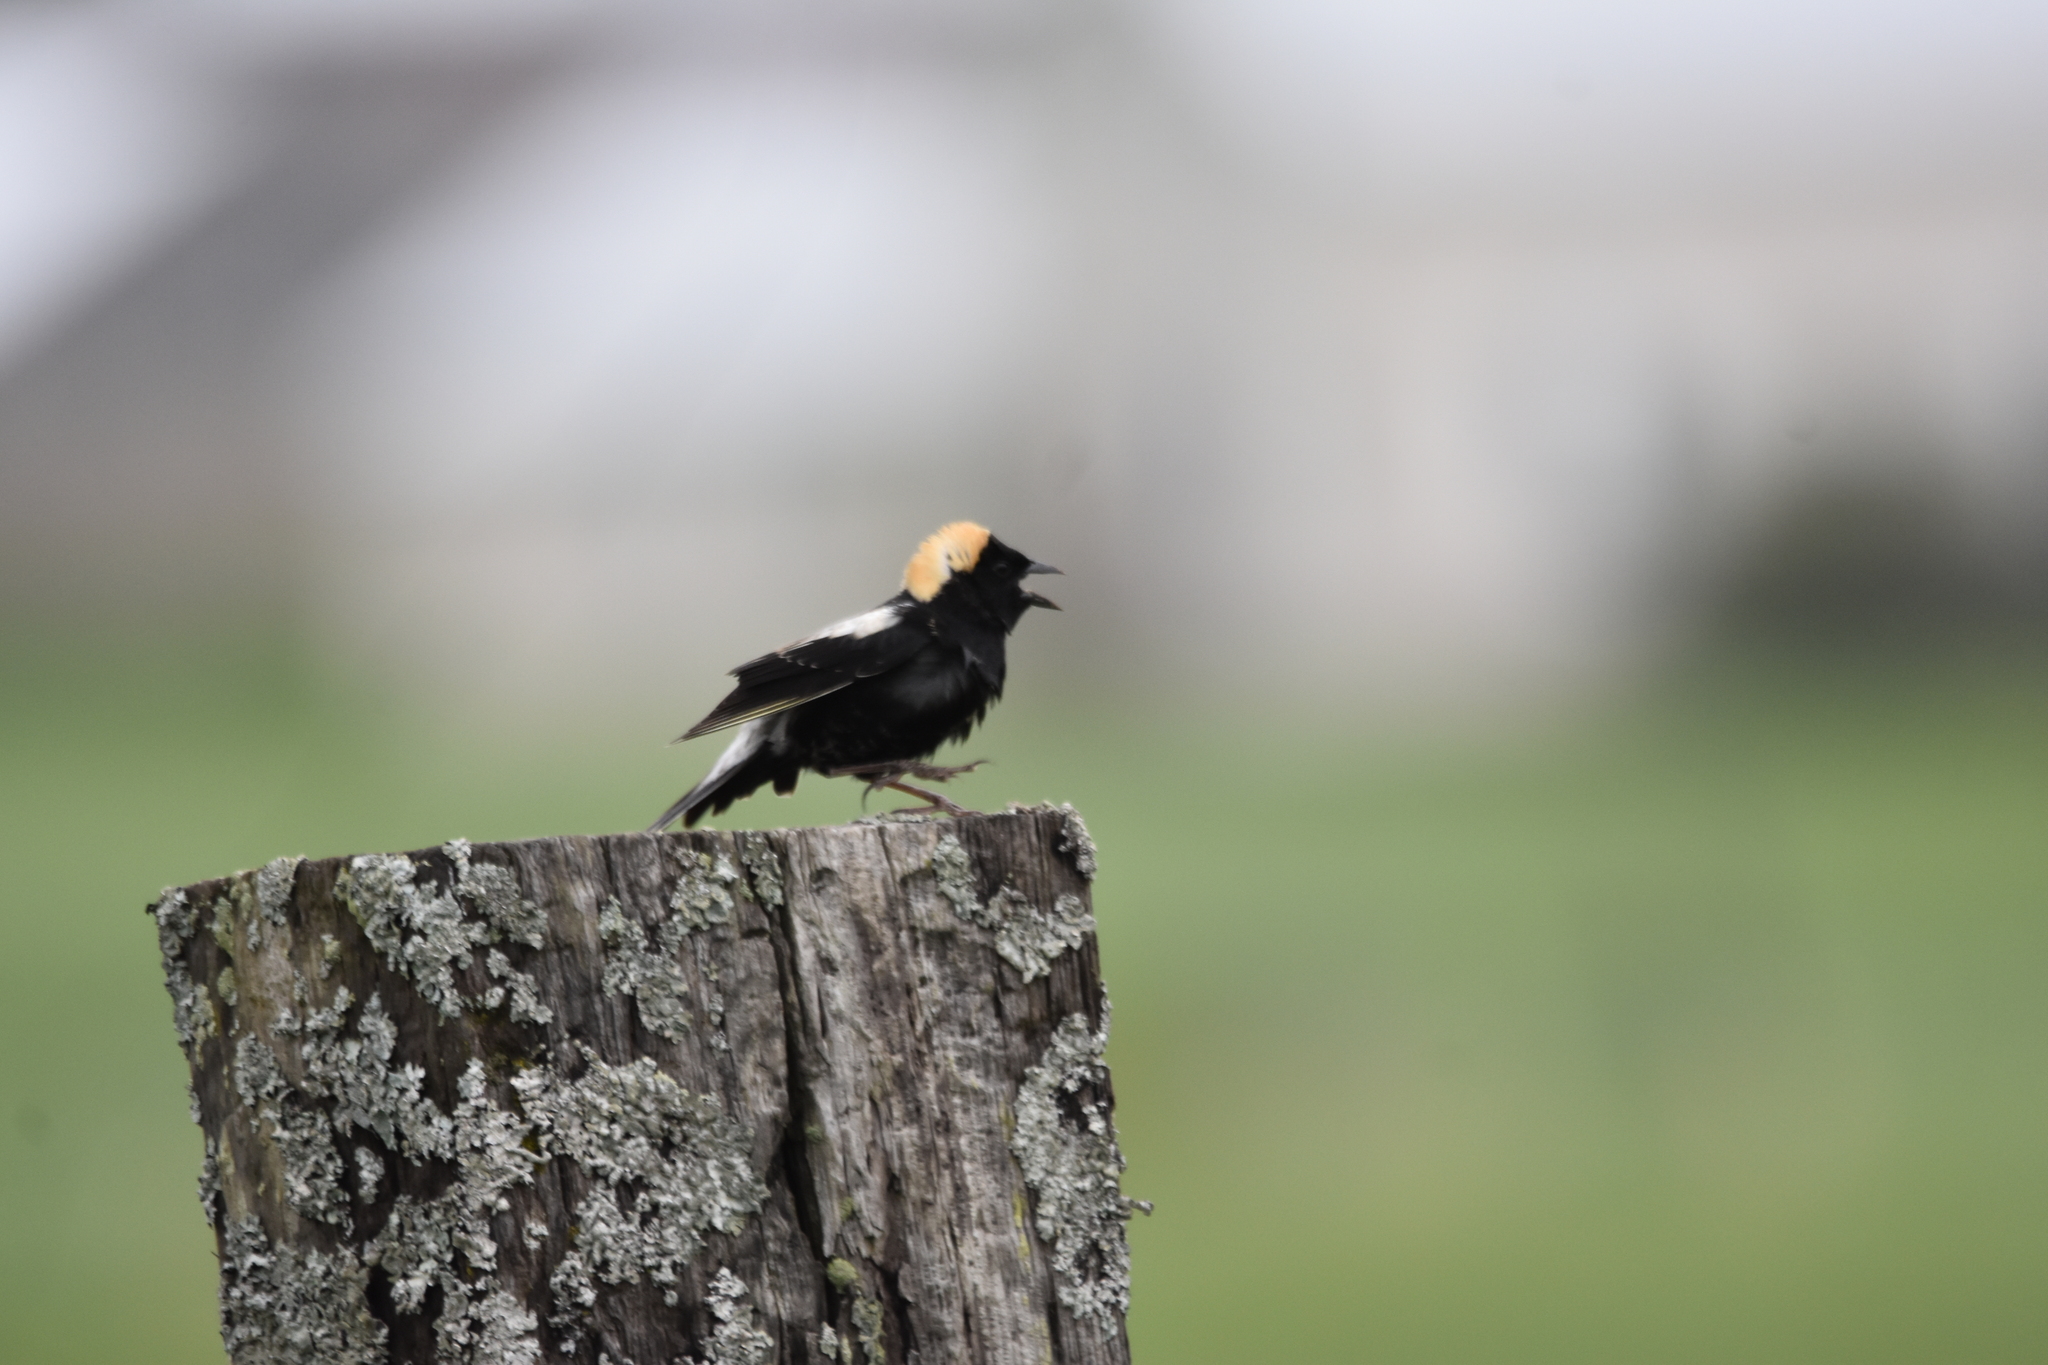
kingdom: Animalia
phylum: Chordata
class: Aves
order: Passeriformes
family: Icteridae
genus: Dolichonyx
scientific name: Dolichonyx oryzivorus
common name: Bobolink
